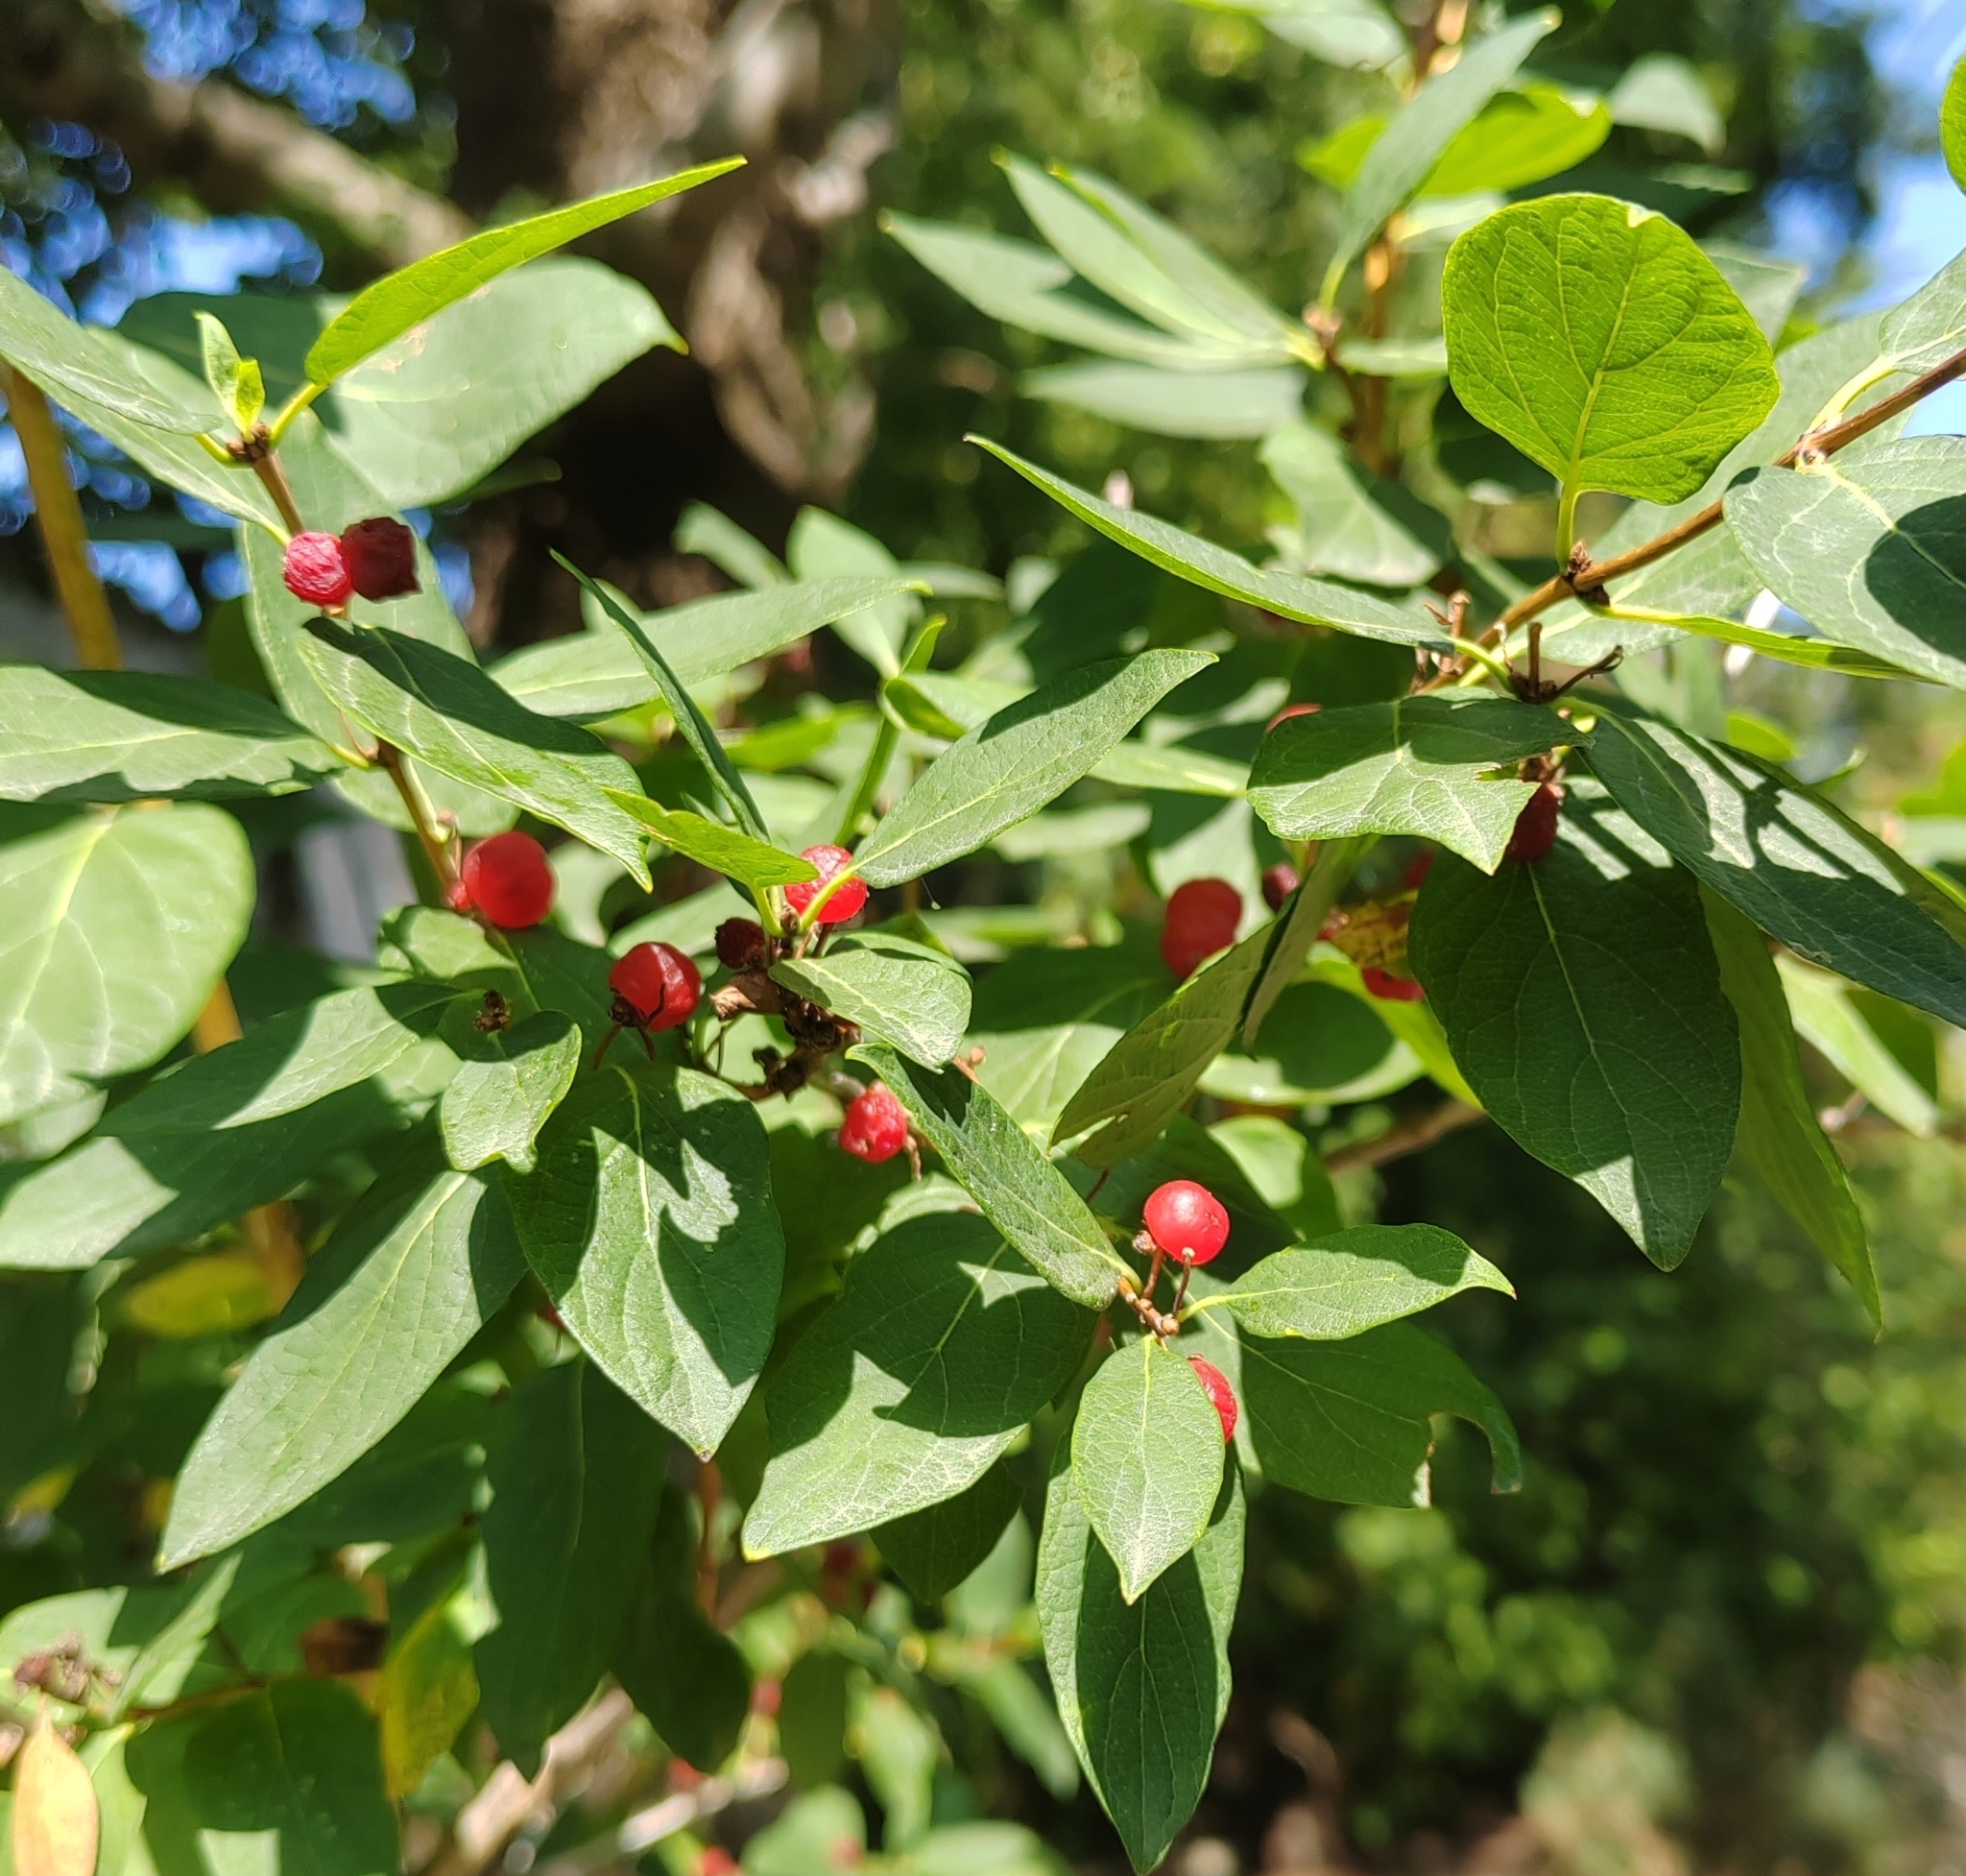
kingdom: Plantae
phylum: Tracheophyta
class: Magnoliopsida
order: Dipsacales
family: Caprifoliaceae
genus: Lonicera
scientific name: Lonicera tatarica
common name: Tatarian honeysuckle
